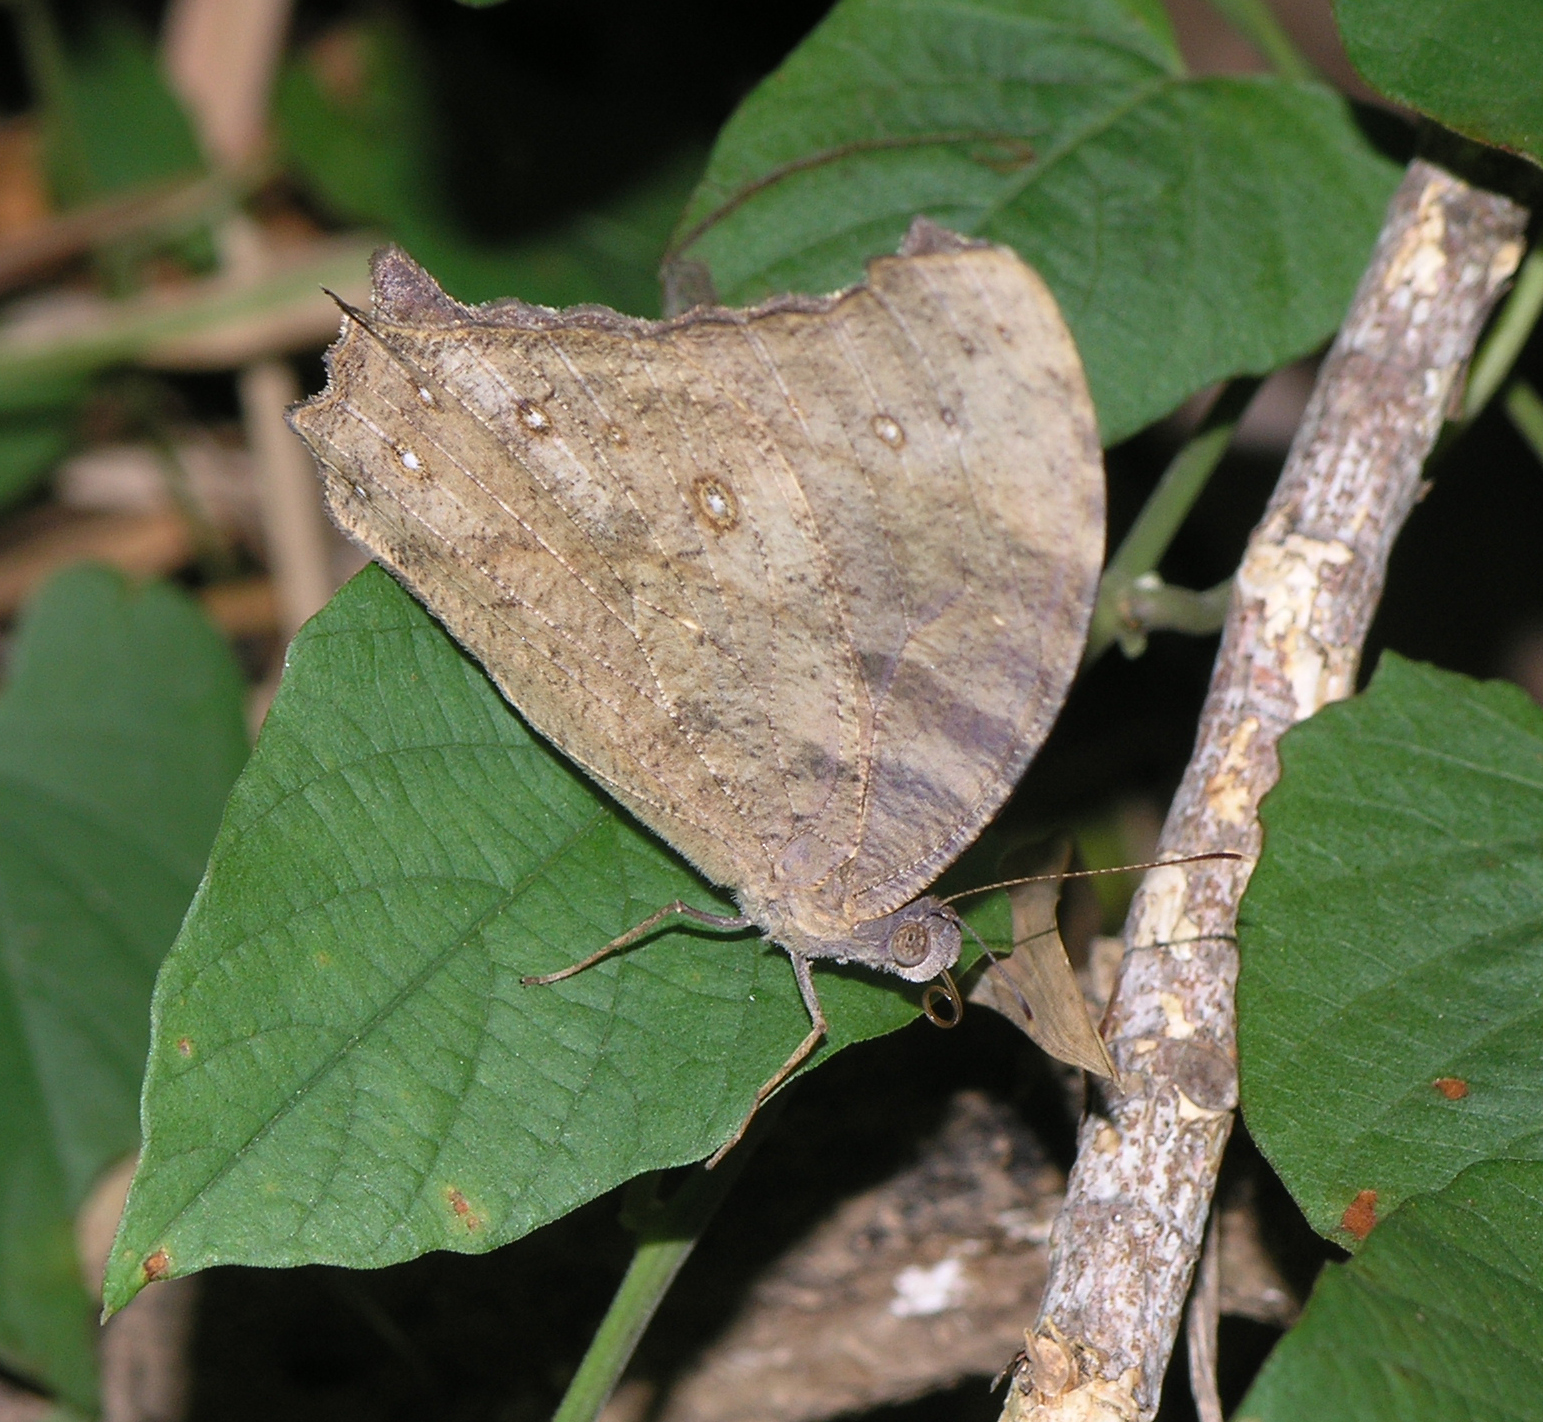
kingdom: Animalia
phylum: Arthropoda
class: Insecta
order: Lepidoptera
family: Nymphalidae
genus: Melanitis
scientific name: Melanitis leda
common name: Twilight brown
